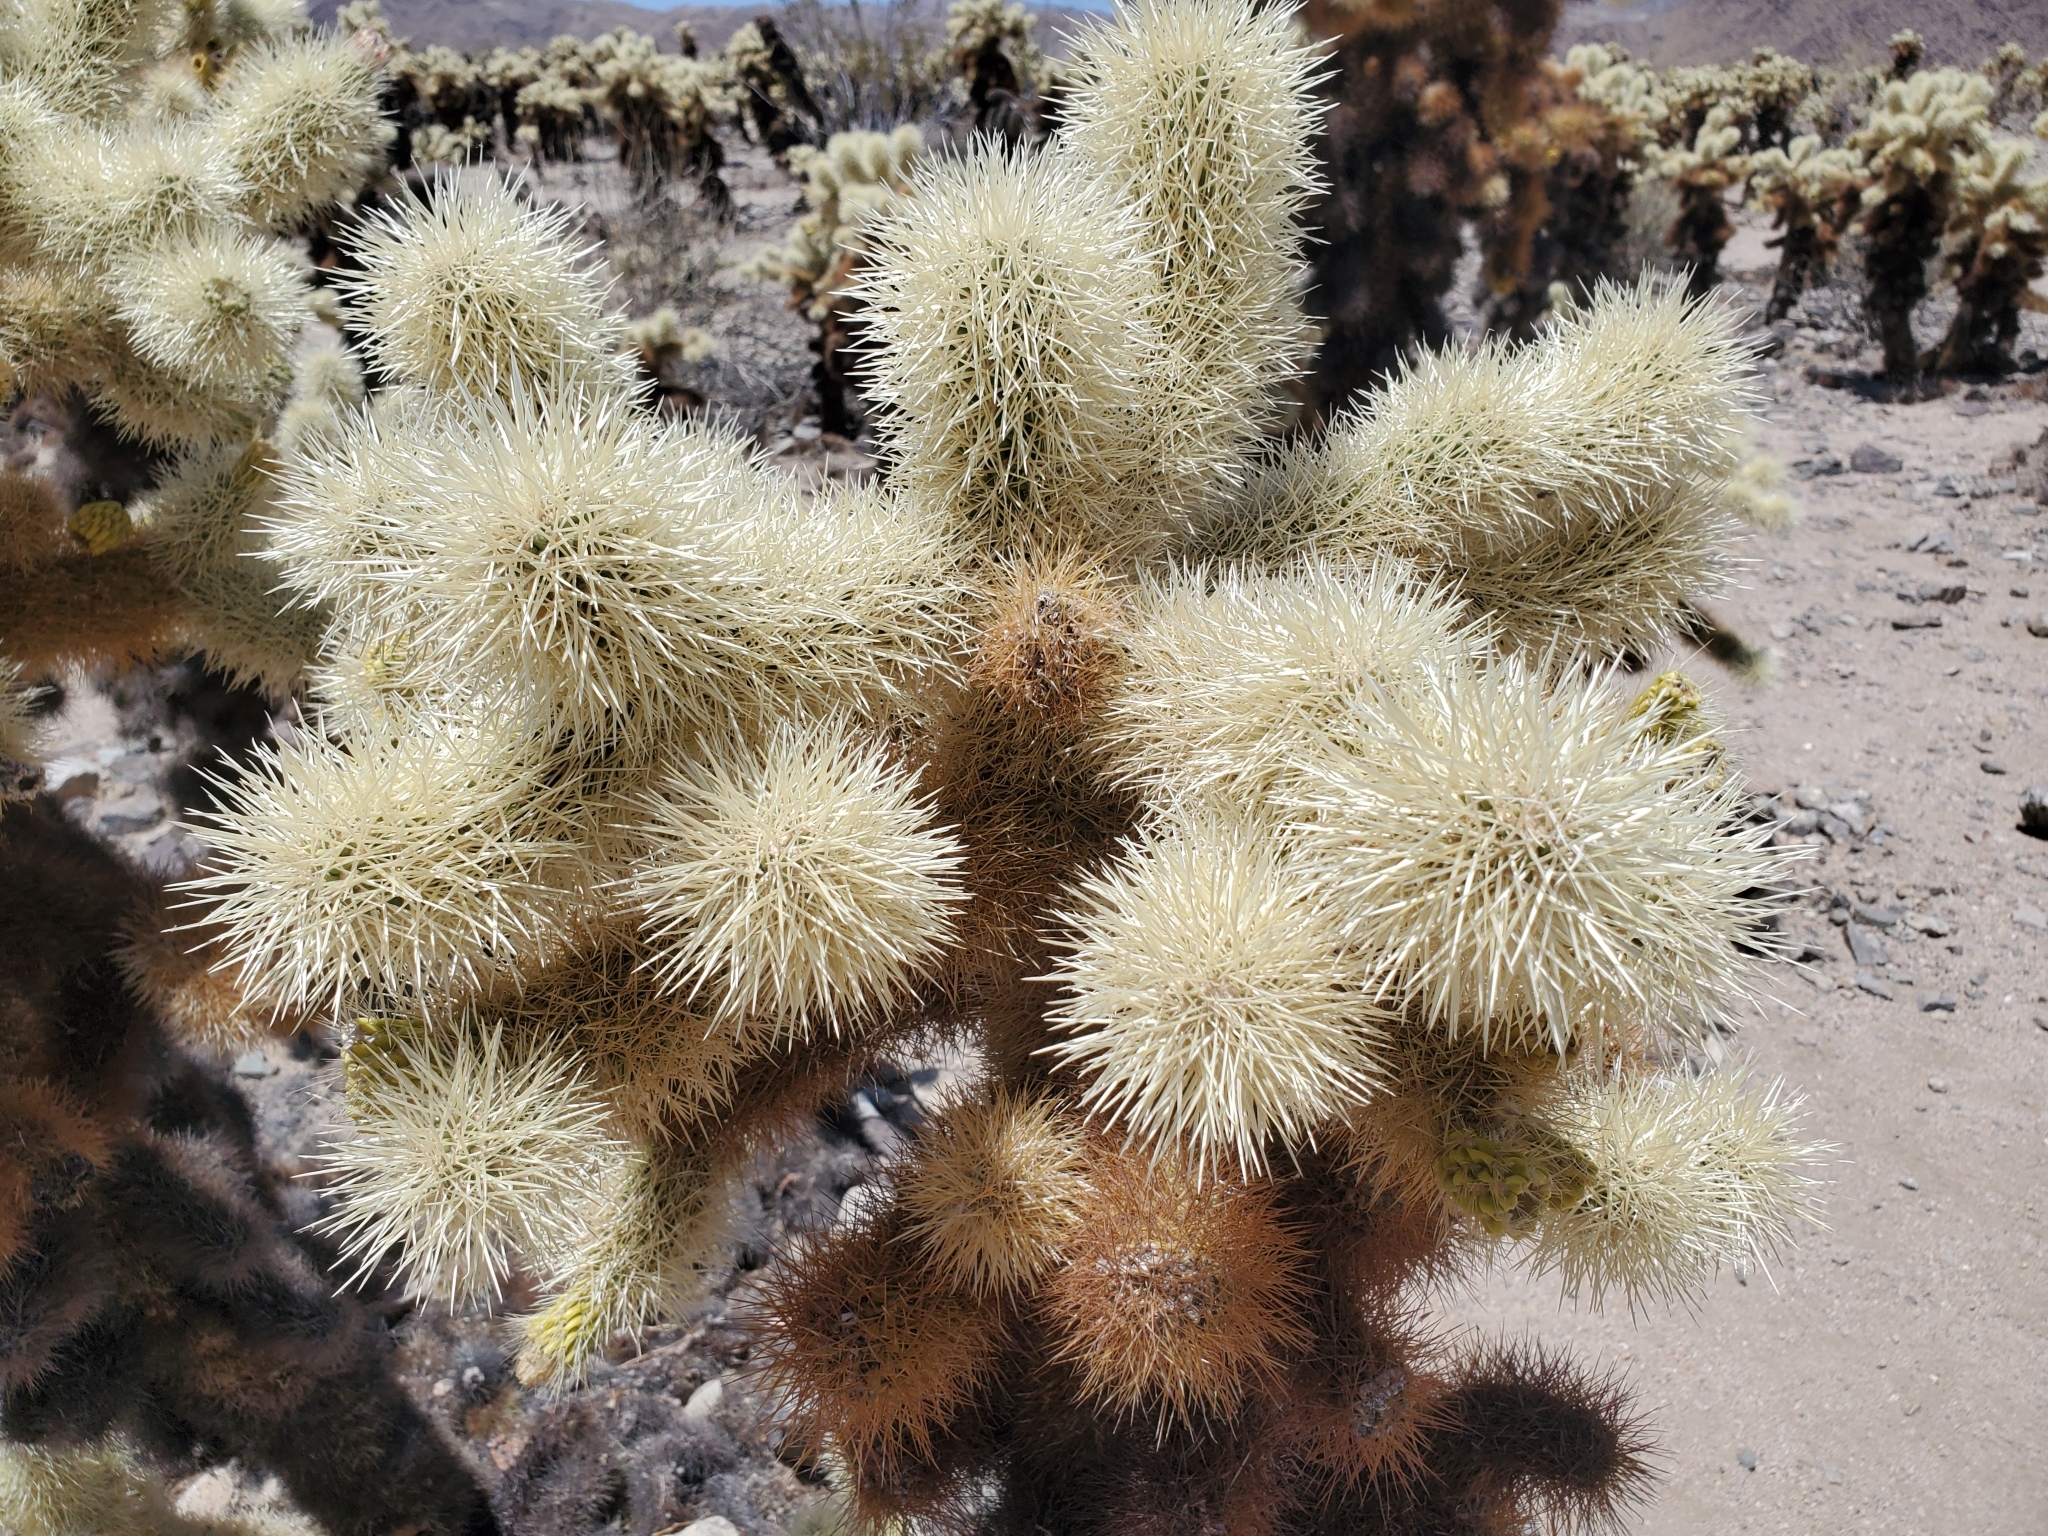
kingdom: Plantae
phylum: Tracheophyta
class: Magnoliopsida
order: Caryophyllales
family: Cactaceae
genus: Cylindropuntia
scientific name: Cylindropuntia fosbergii
